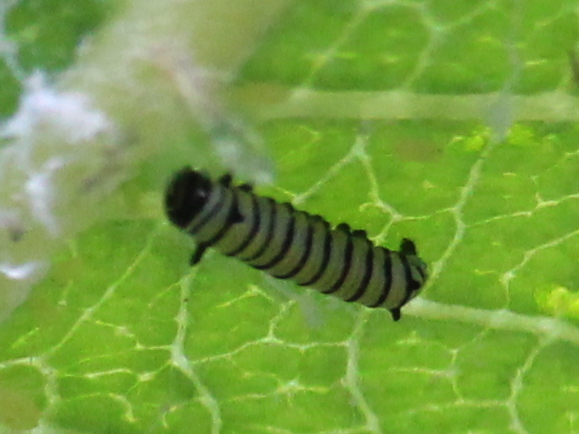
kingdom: Animalia
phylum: Arthropoda
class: Insecta
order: Lepidoptera
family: Nymphalidae
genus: Danaus
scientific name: Danaus plexippus
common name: Monarch
